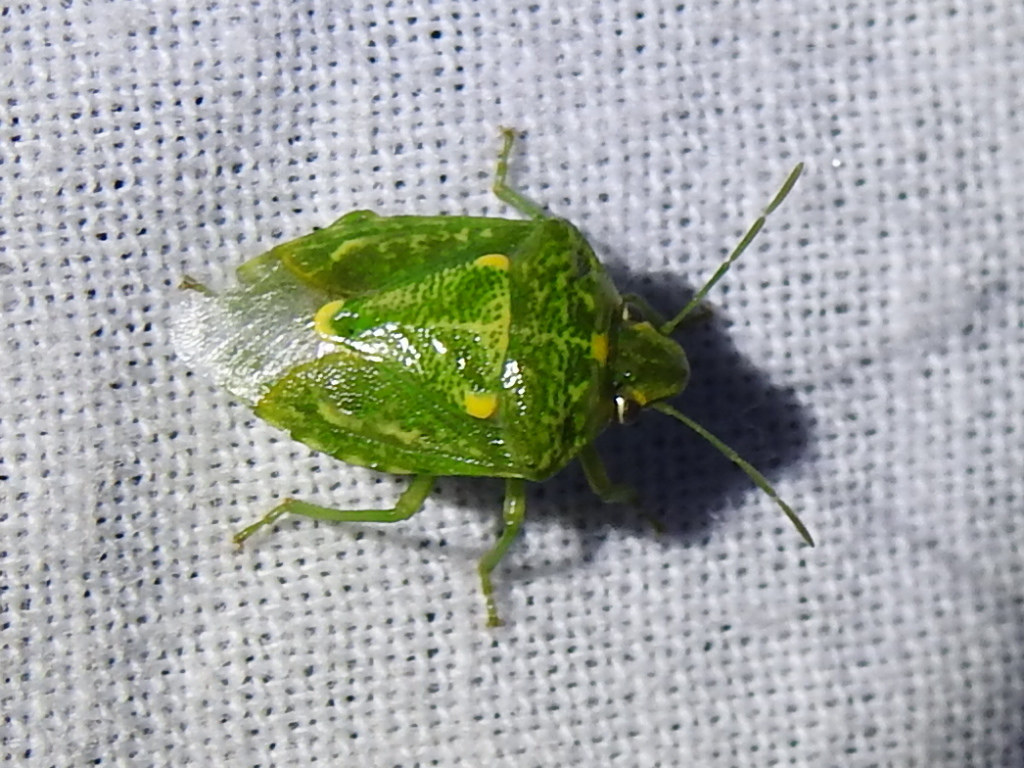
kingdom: Animalia
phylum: Arthropoda
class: Insecta
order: Hemiptera
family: Pentatomidae
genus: Banasa
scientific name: Banasa euchlora
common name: Cedar berry bug
